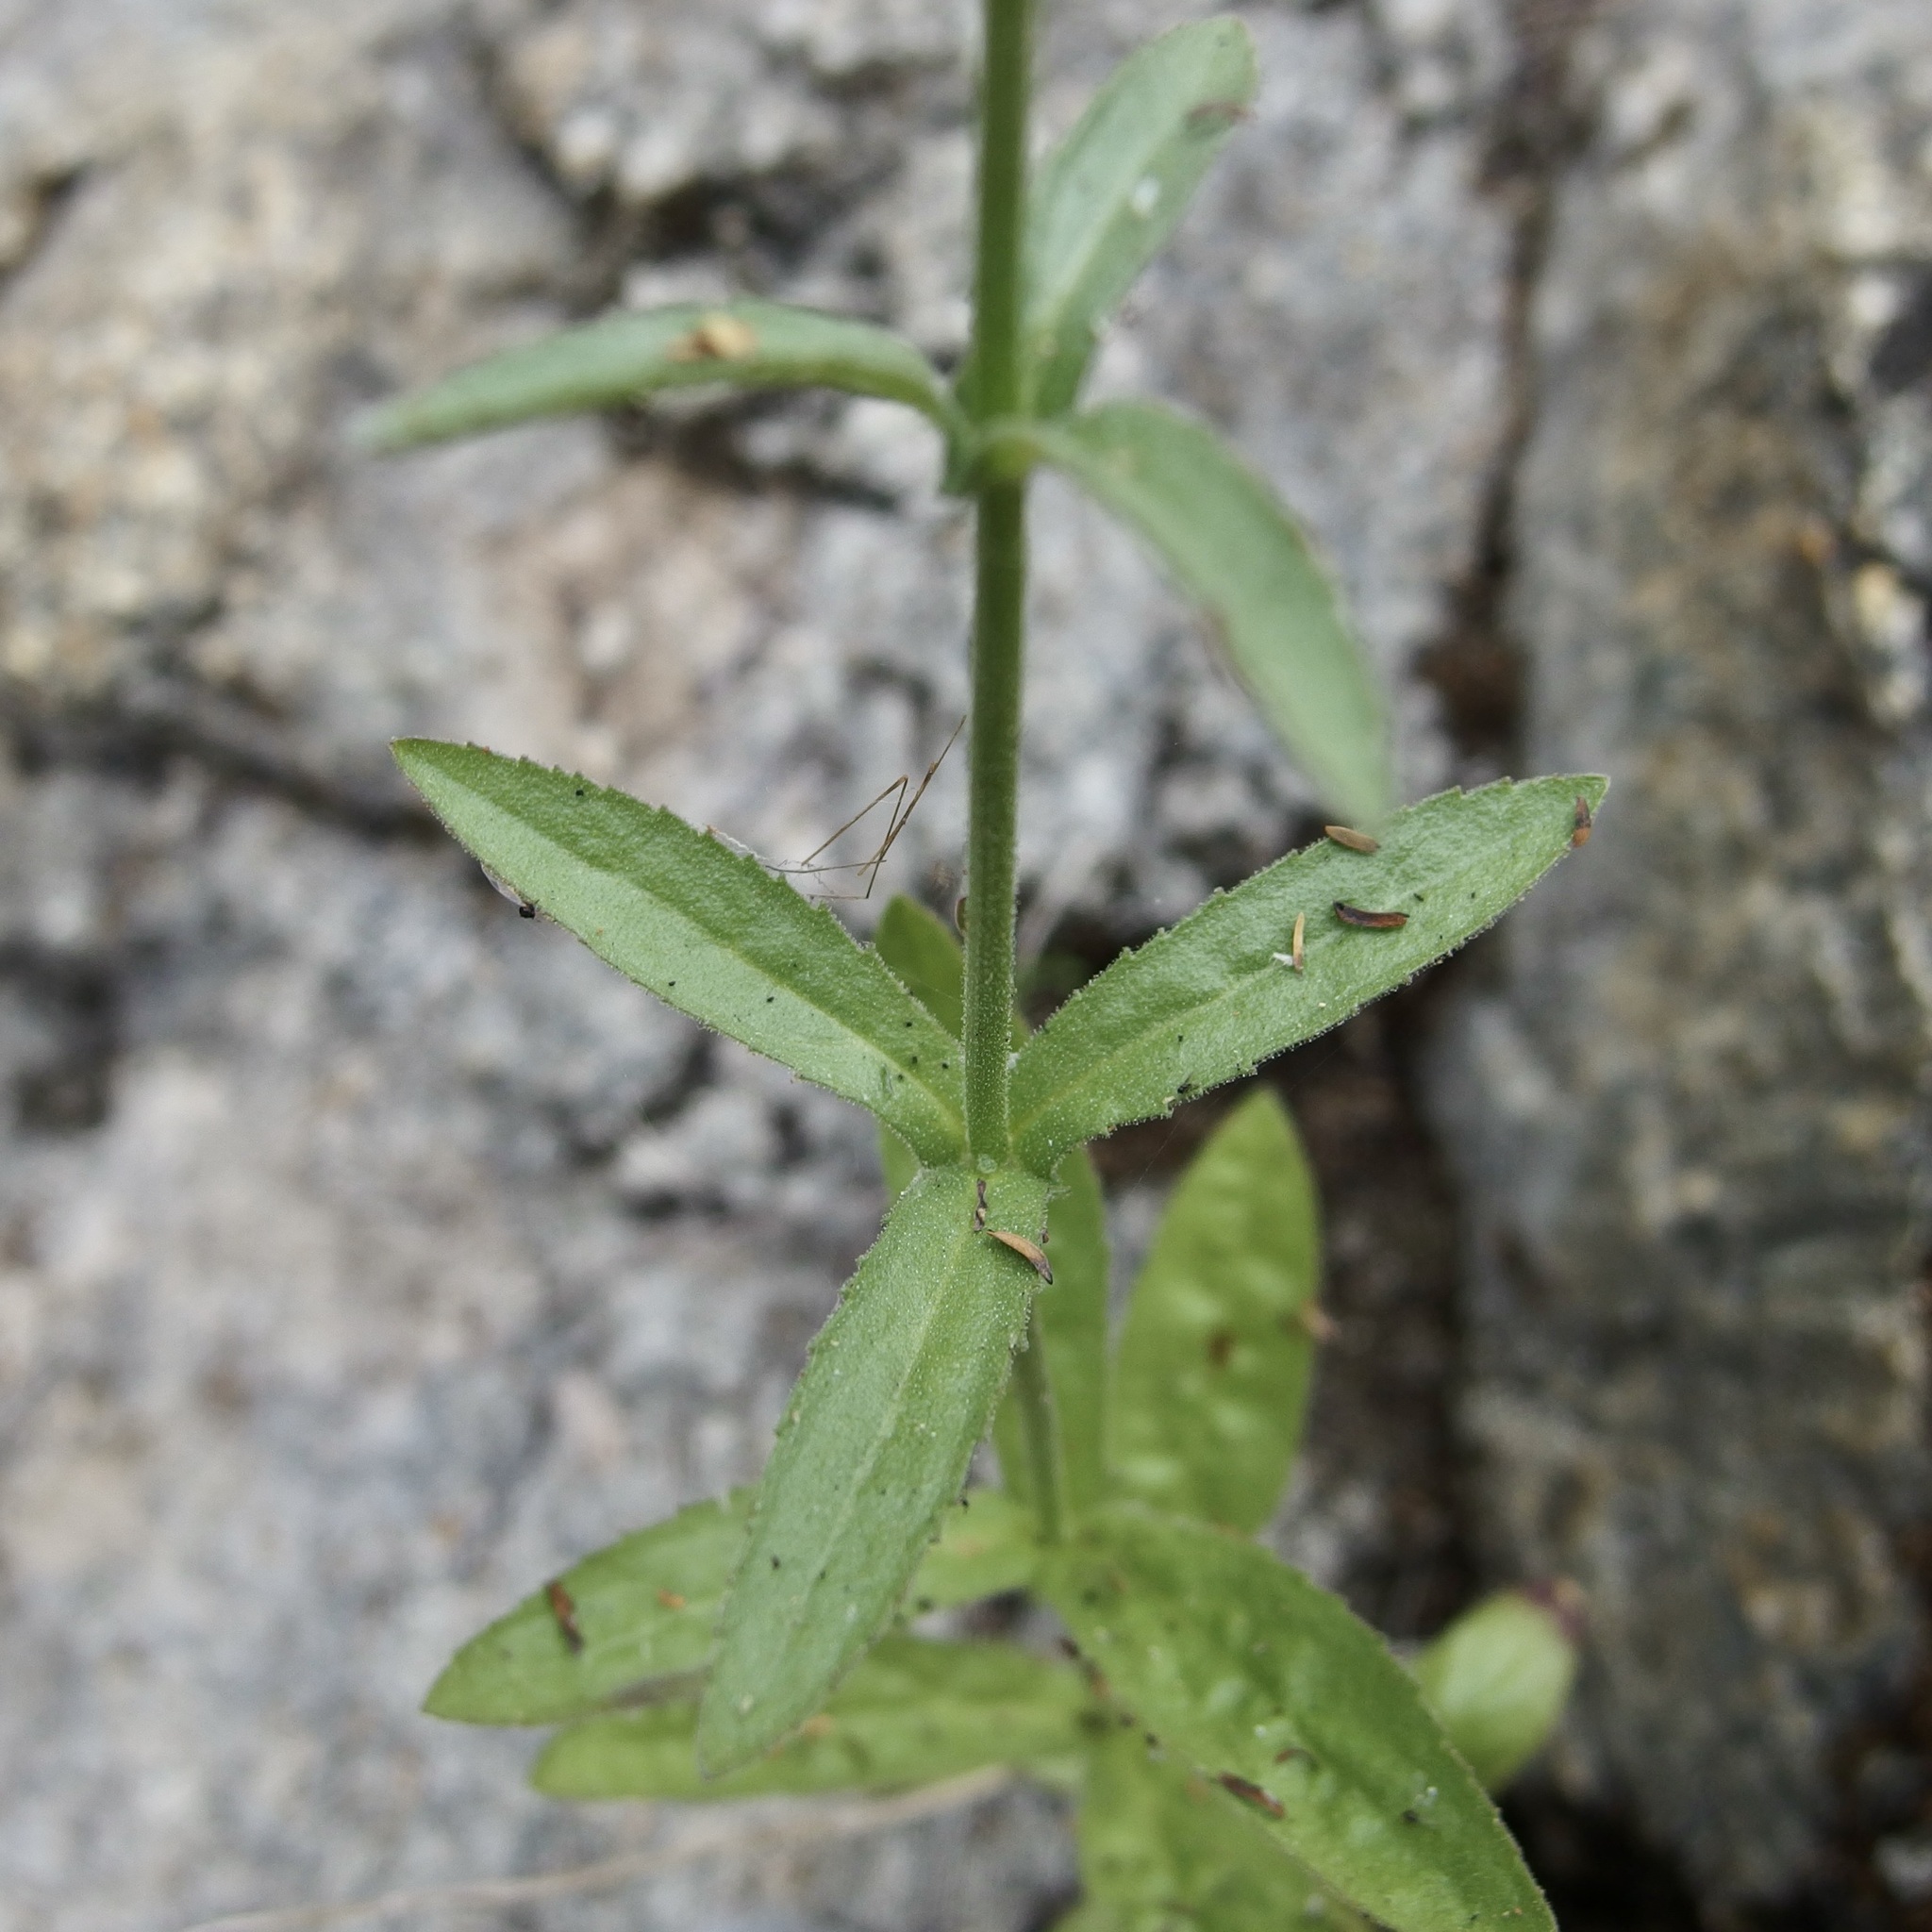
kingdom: Plantae
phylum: Tracheophyta
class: Magnoliopsida
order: Lamiales
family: Plantaginaceae
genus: Stemodia
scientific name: Stemodia durantifolia
